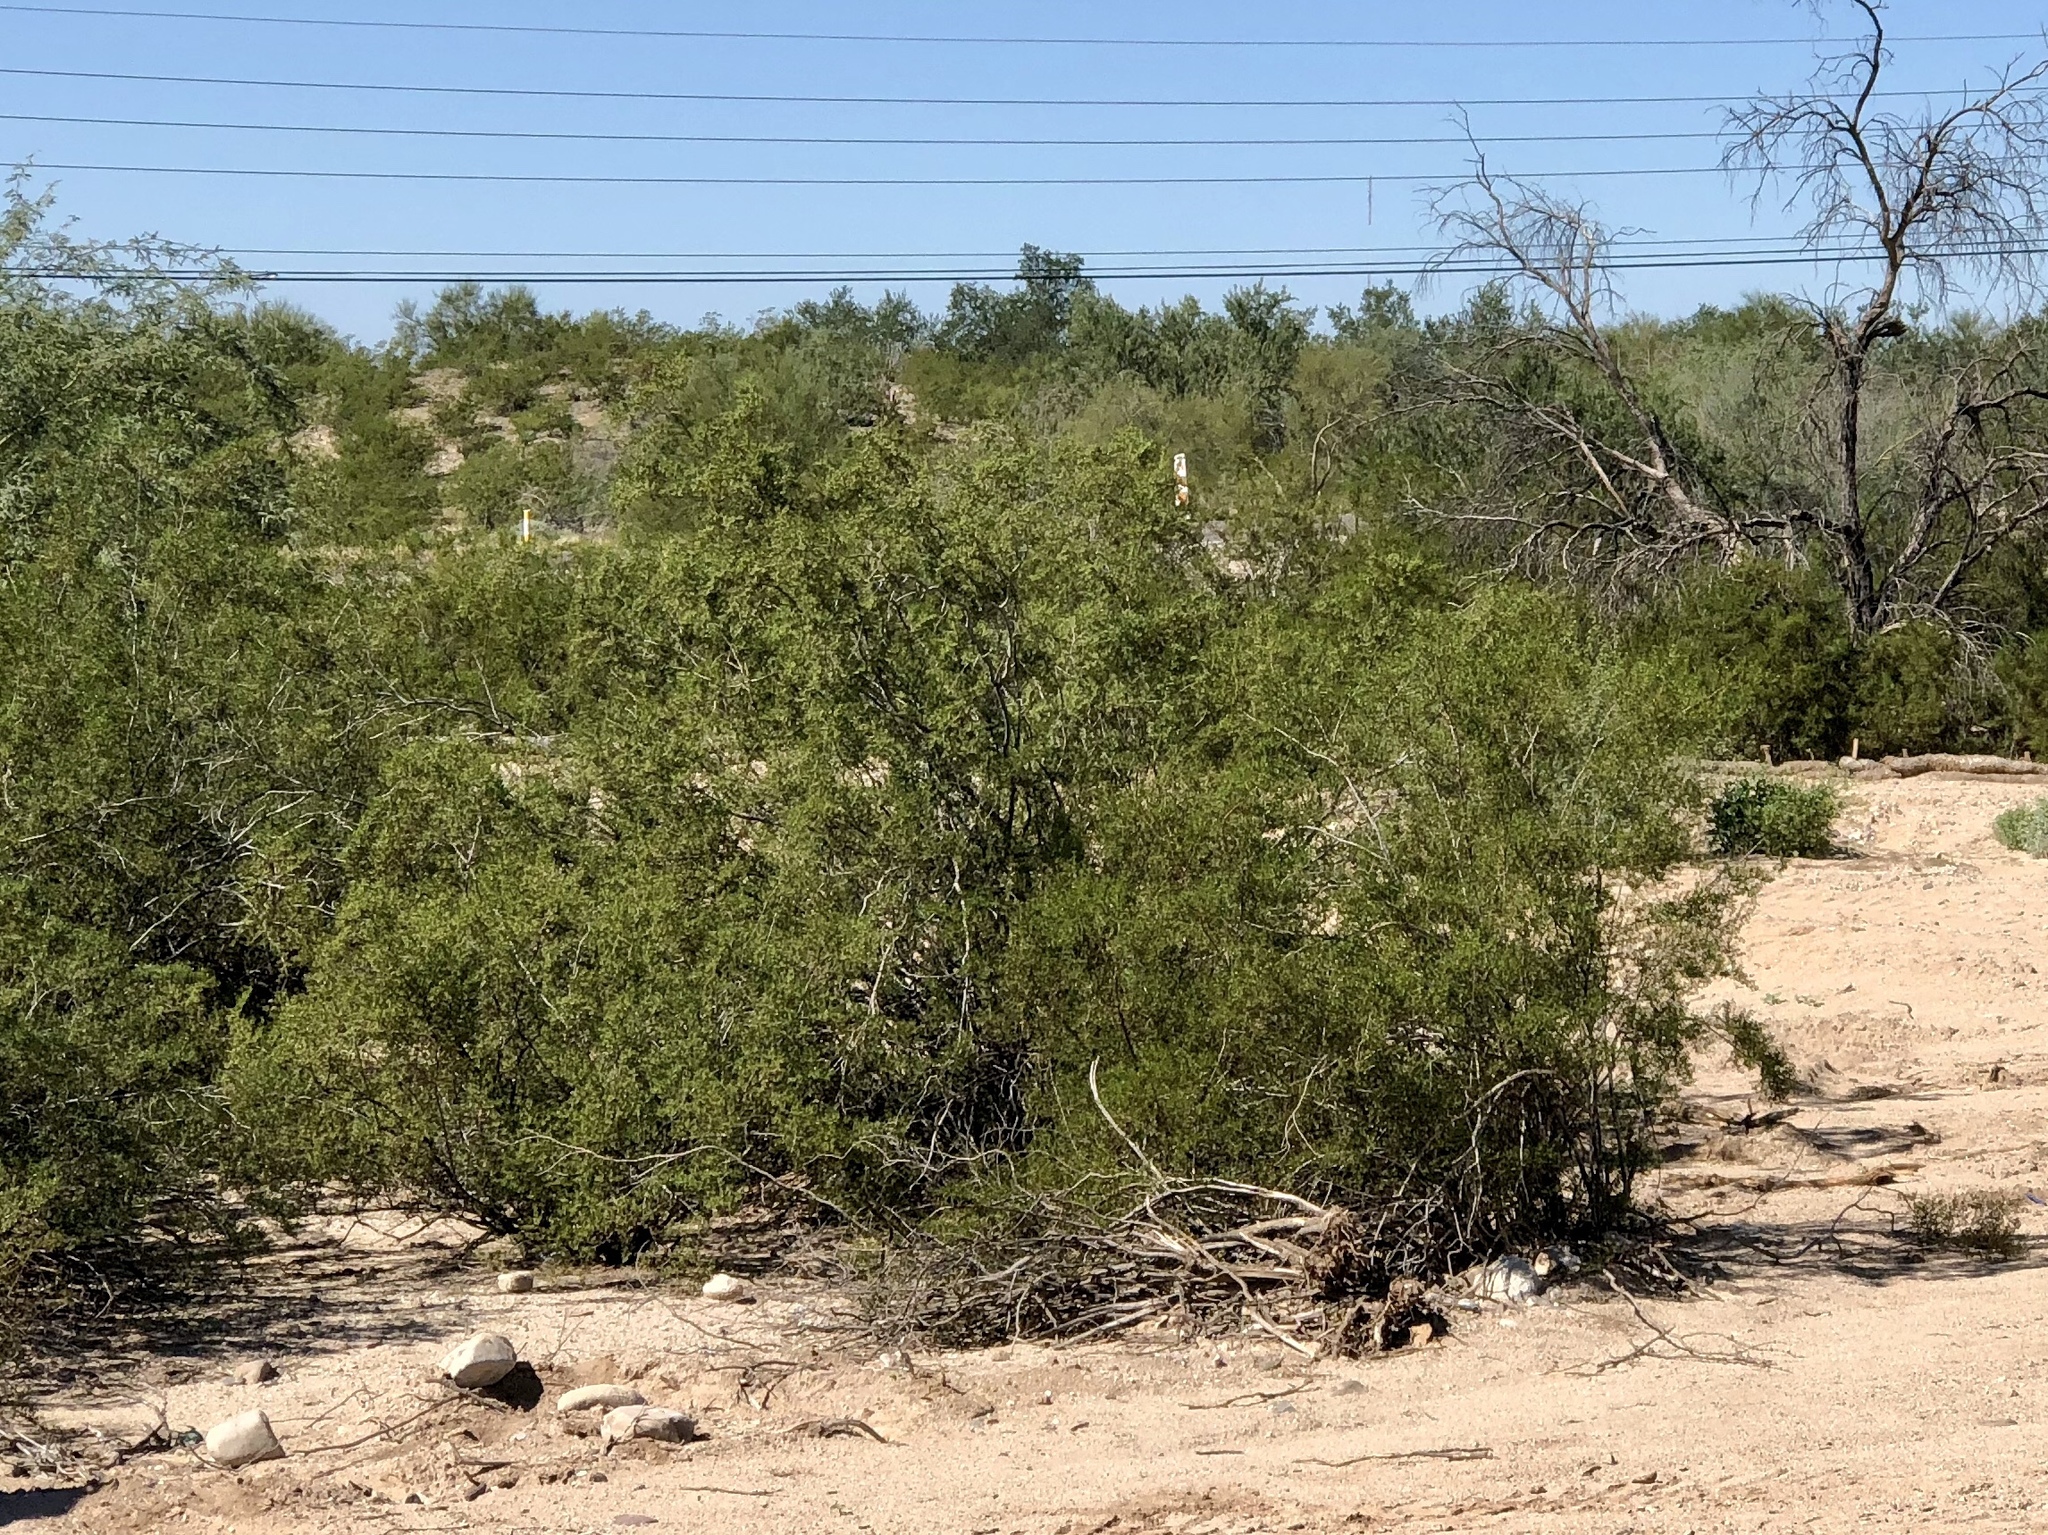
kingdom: Plantae
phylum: Tracheophyta
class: Magnoliopsida
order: Zygophyllales
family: Zygophyllaceae
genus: Larrea
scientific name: Larrea tridentata
